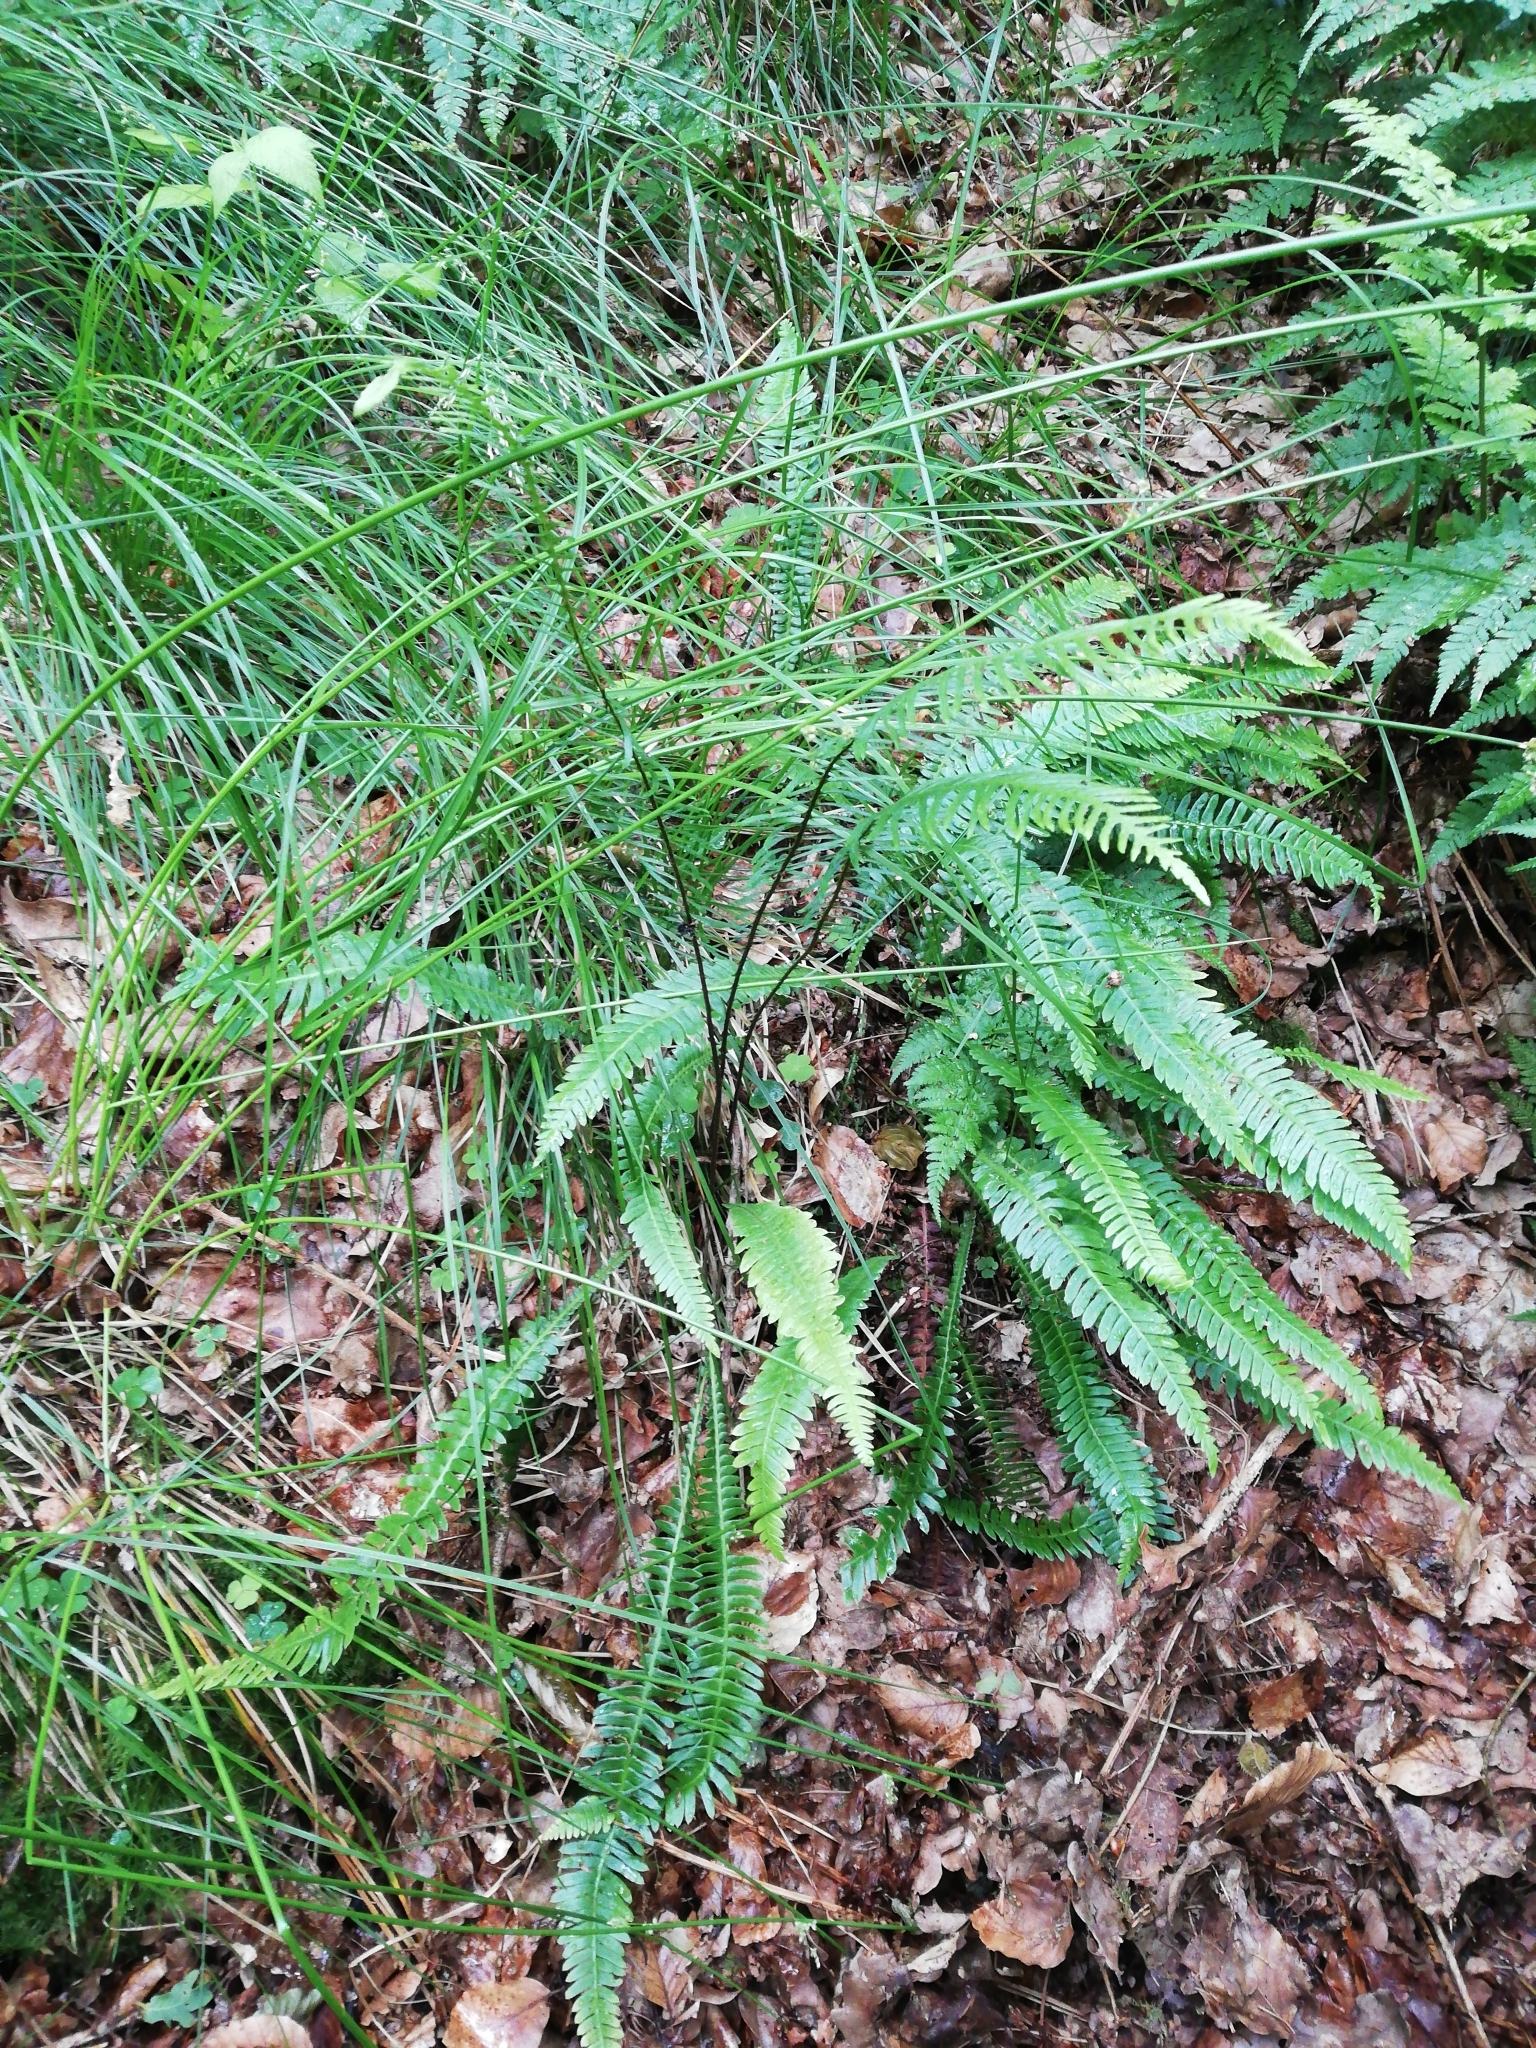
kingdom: Plantae
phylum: Tracheophyta
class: Polypodiopsida
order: Polypodiales
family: Blechnaceae
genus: Struthiopteris
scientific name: Struthiopteris spicant
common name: Deer fern
